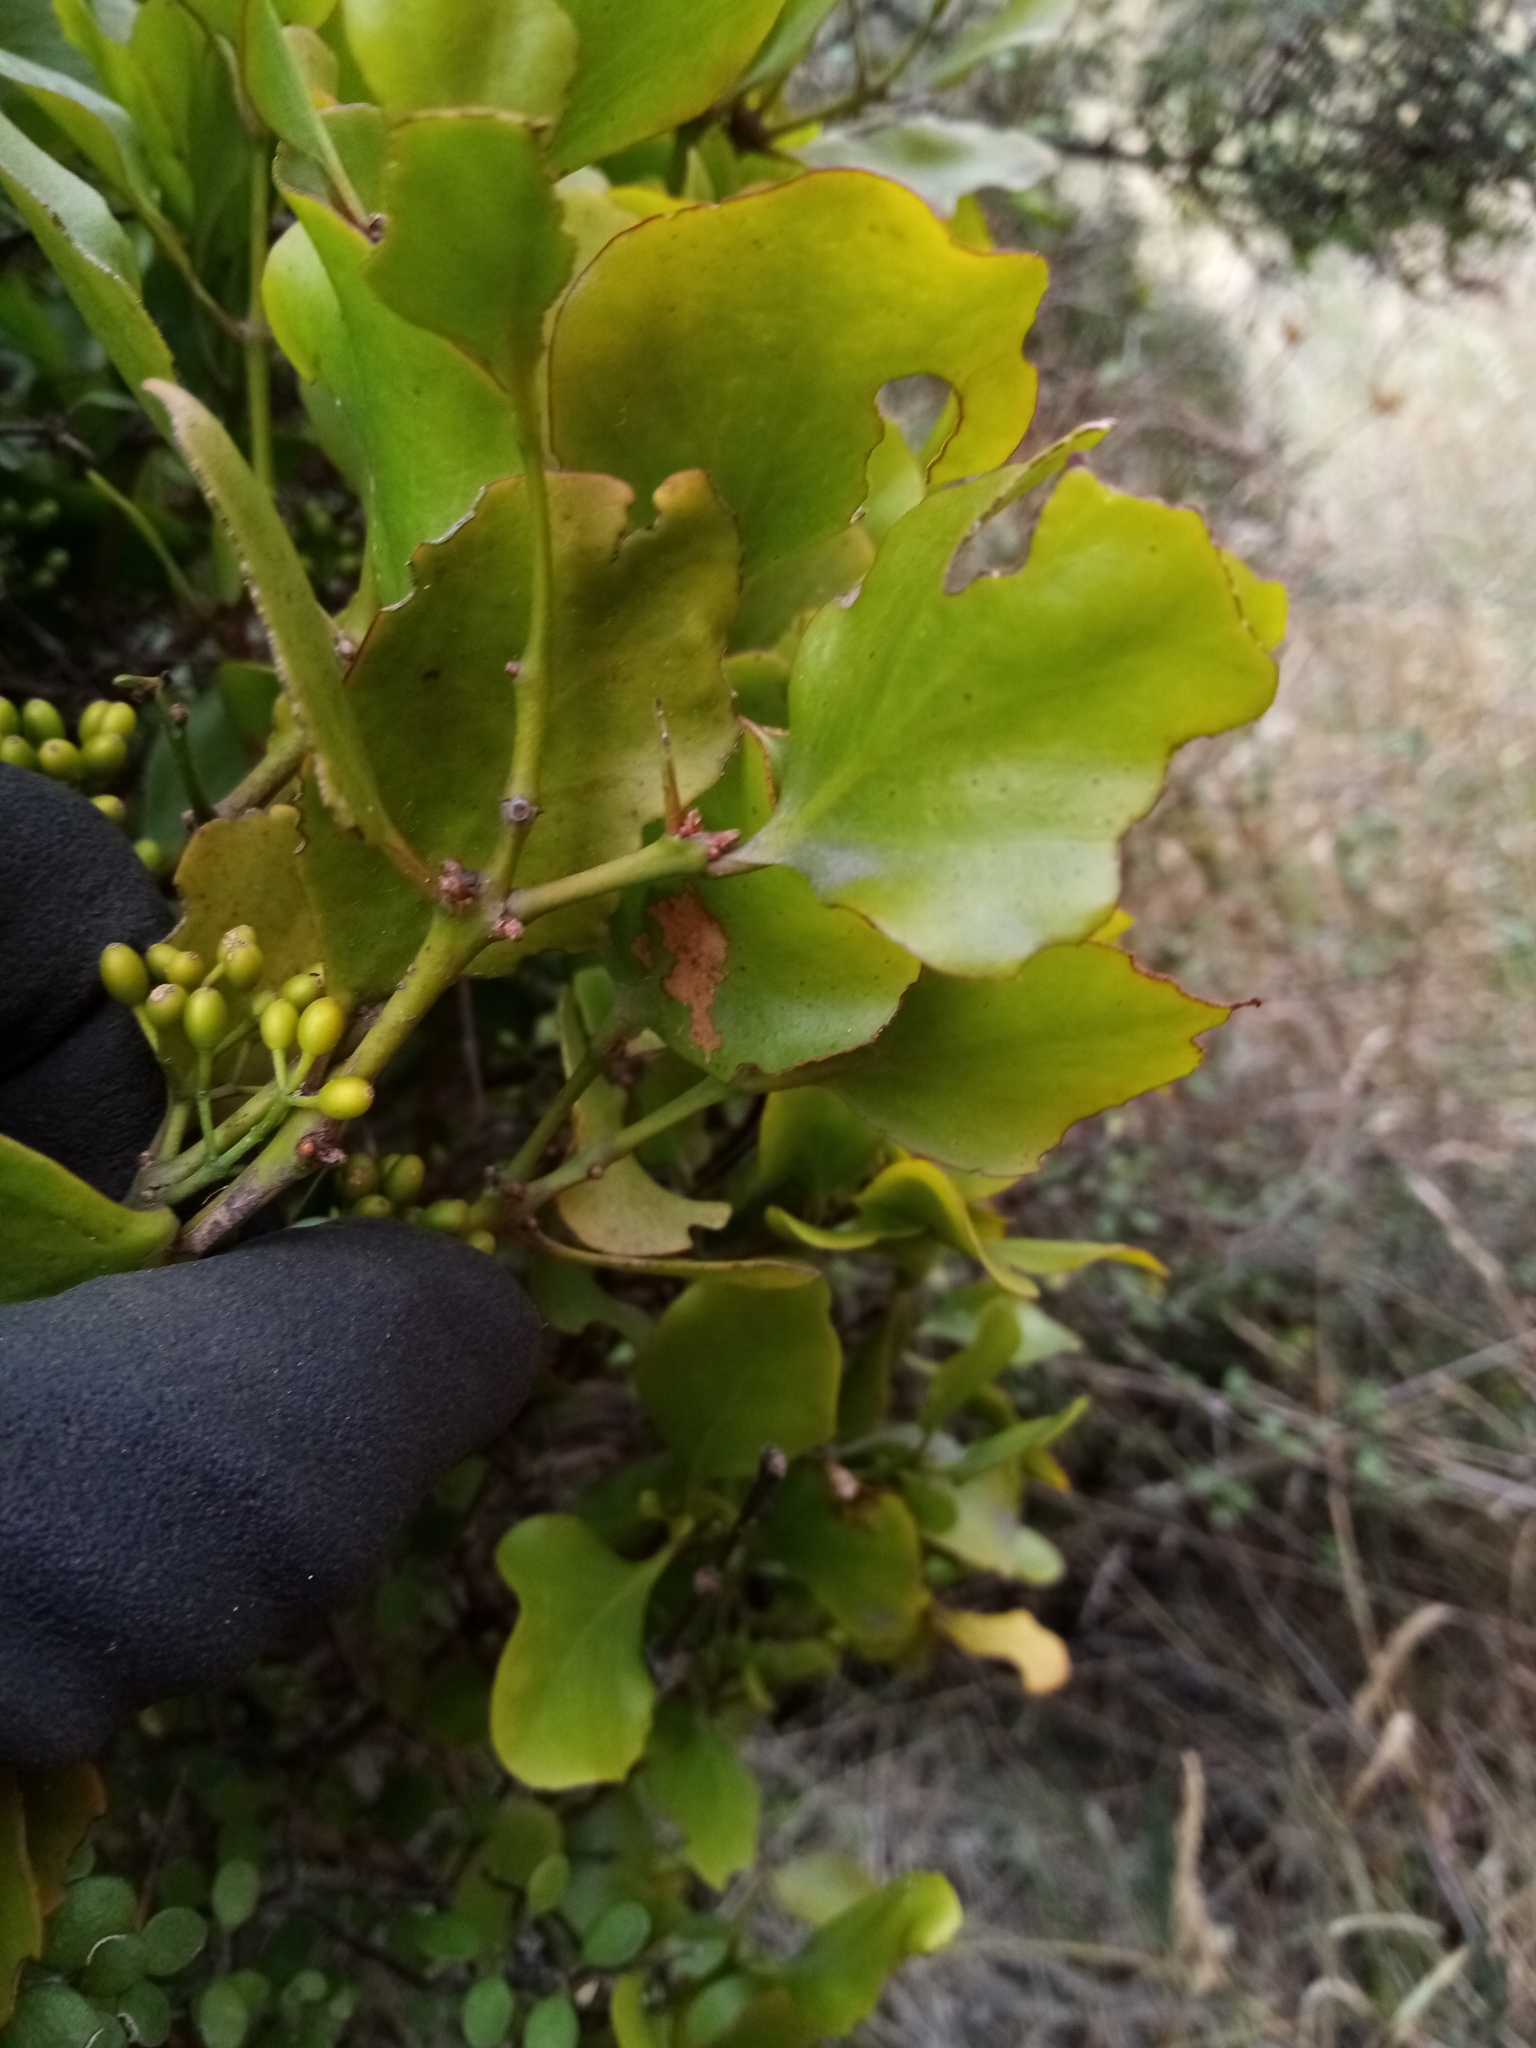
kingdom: Plantae
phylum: Tracheophyta
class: Magnoliopsida
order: Santalales
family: Loranthaceae
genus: Ileostylus
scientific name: Ileostylus micranthus
